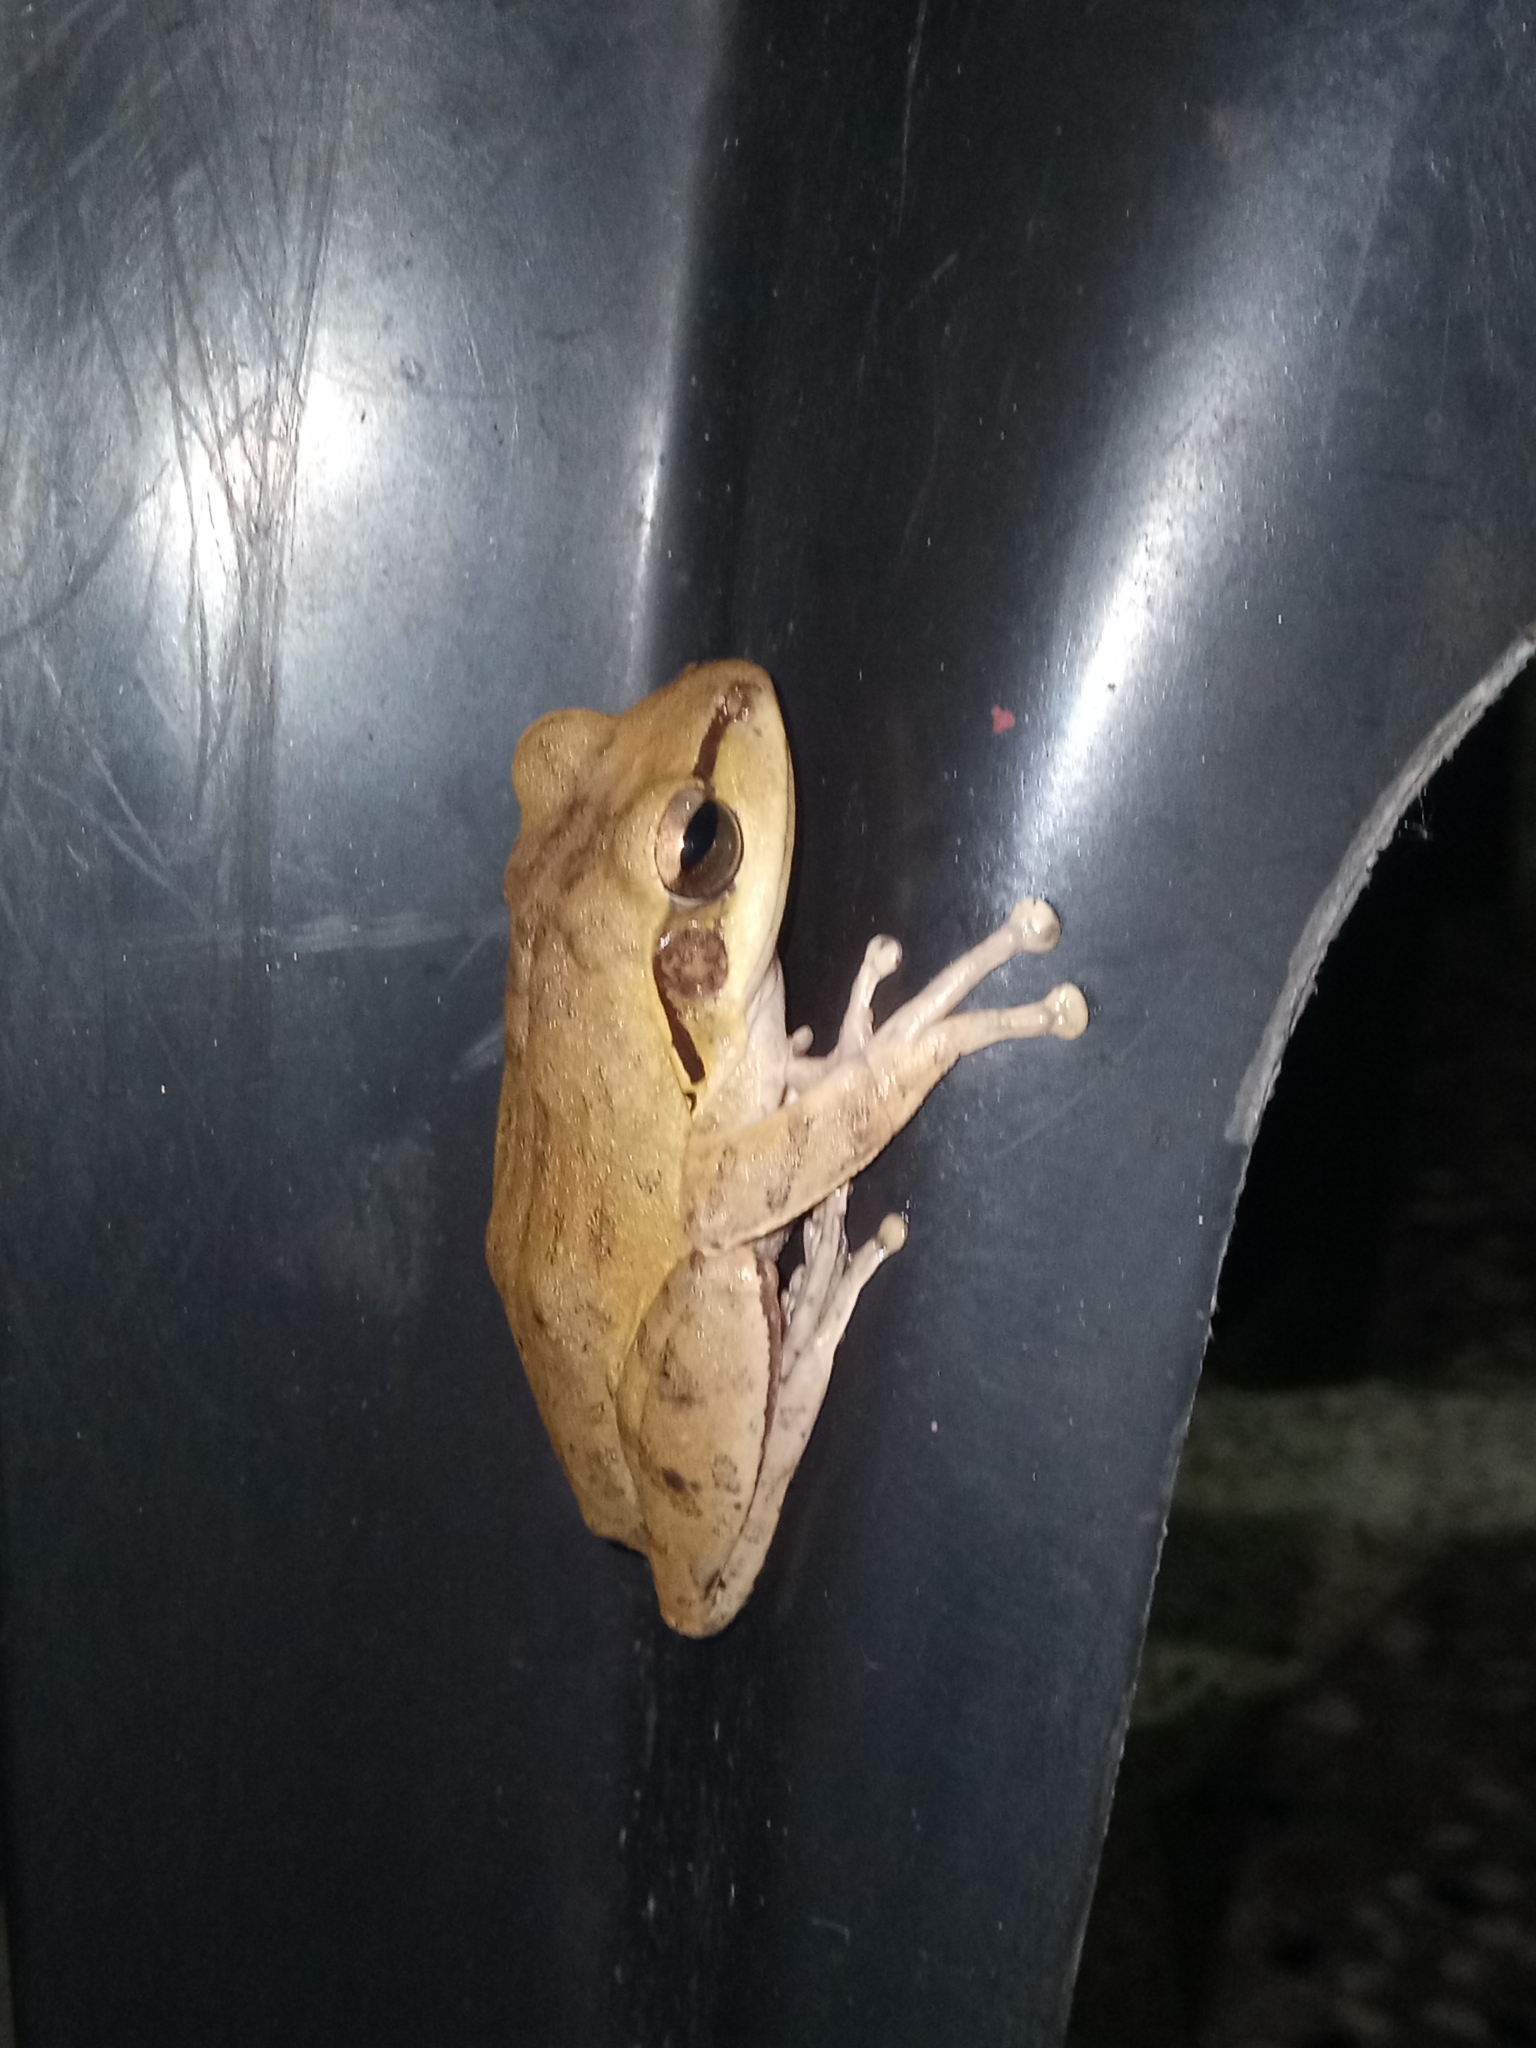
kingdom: Animalia
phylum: Chordata
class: Amphibia
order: Anura
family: Rhacophoridae
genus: Polypedates
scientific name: Polypedates maculatus
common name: Himalayan tree frog
